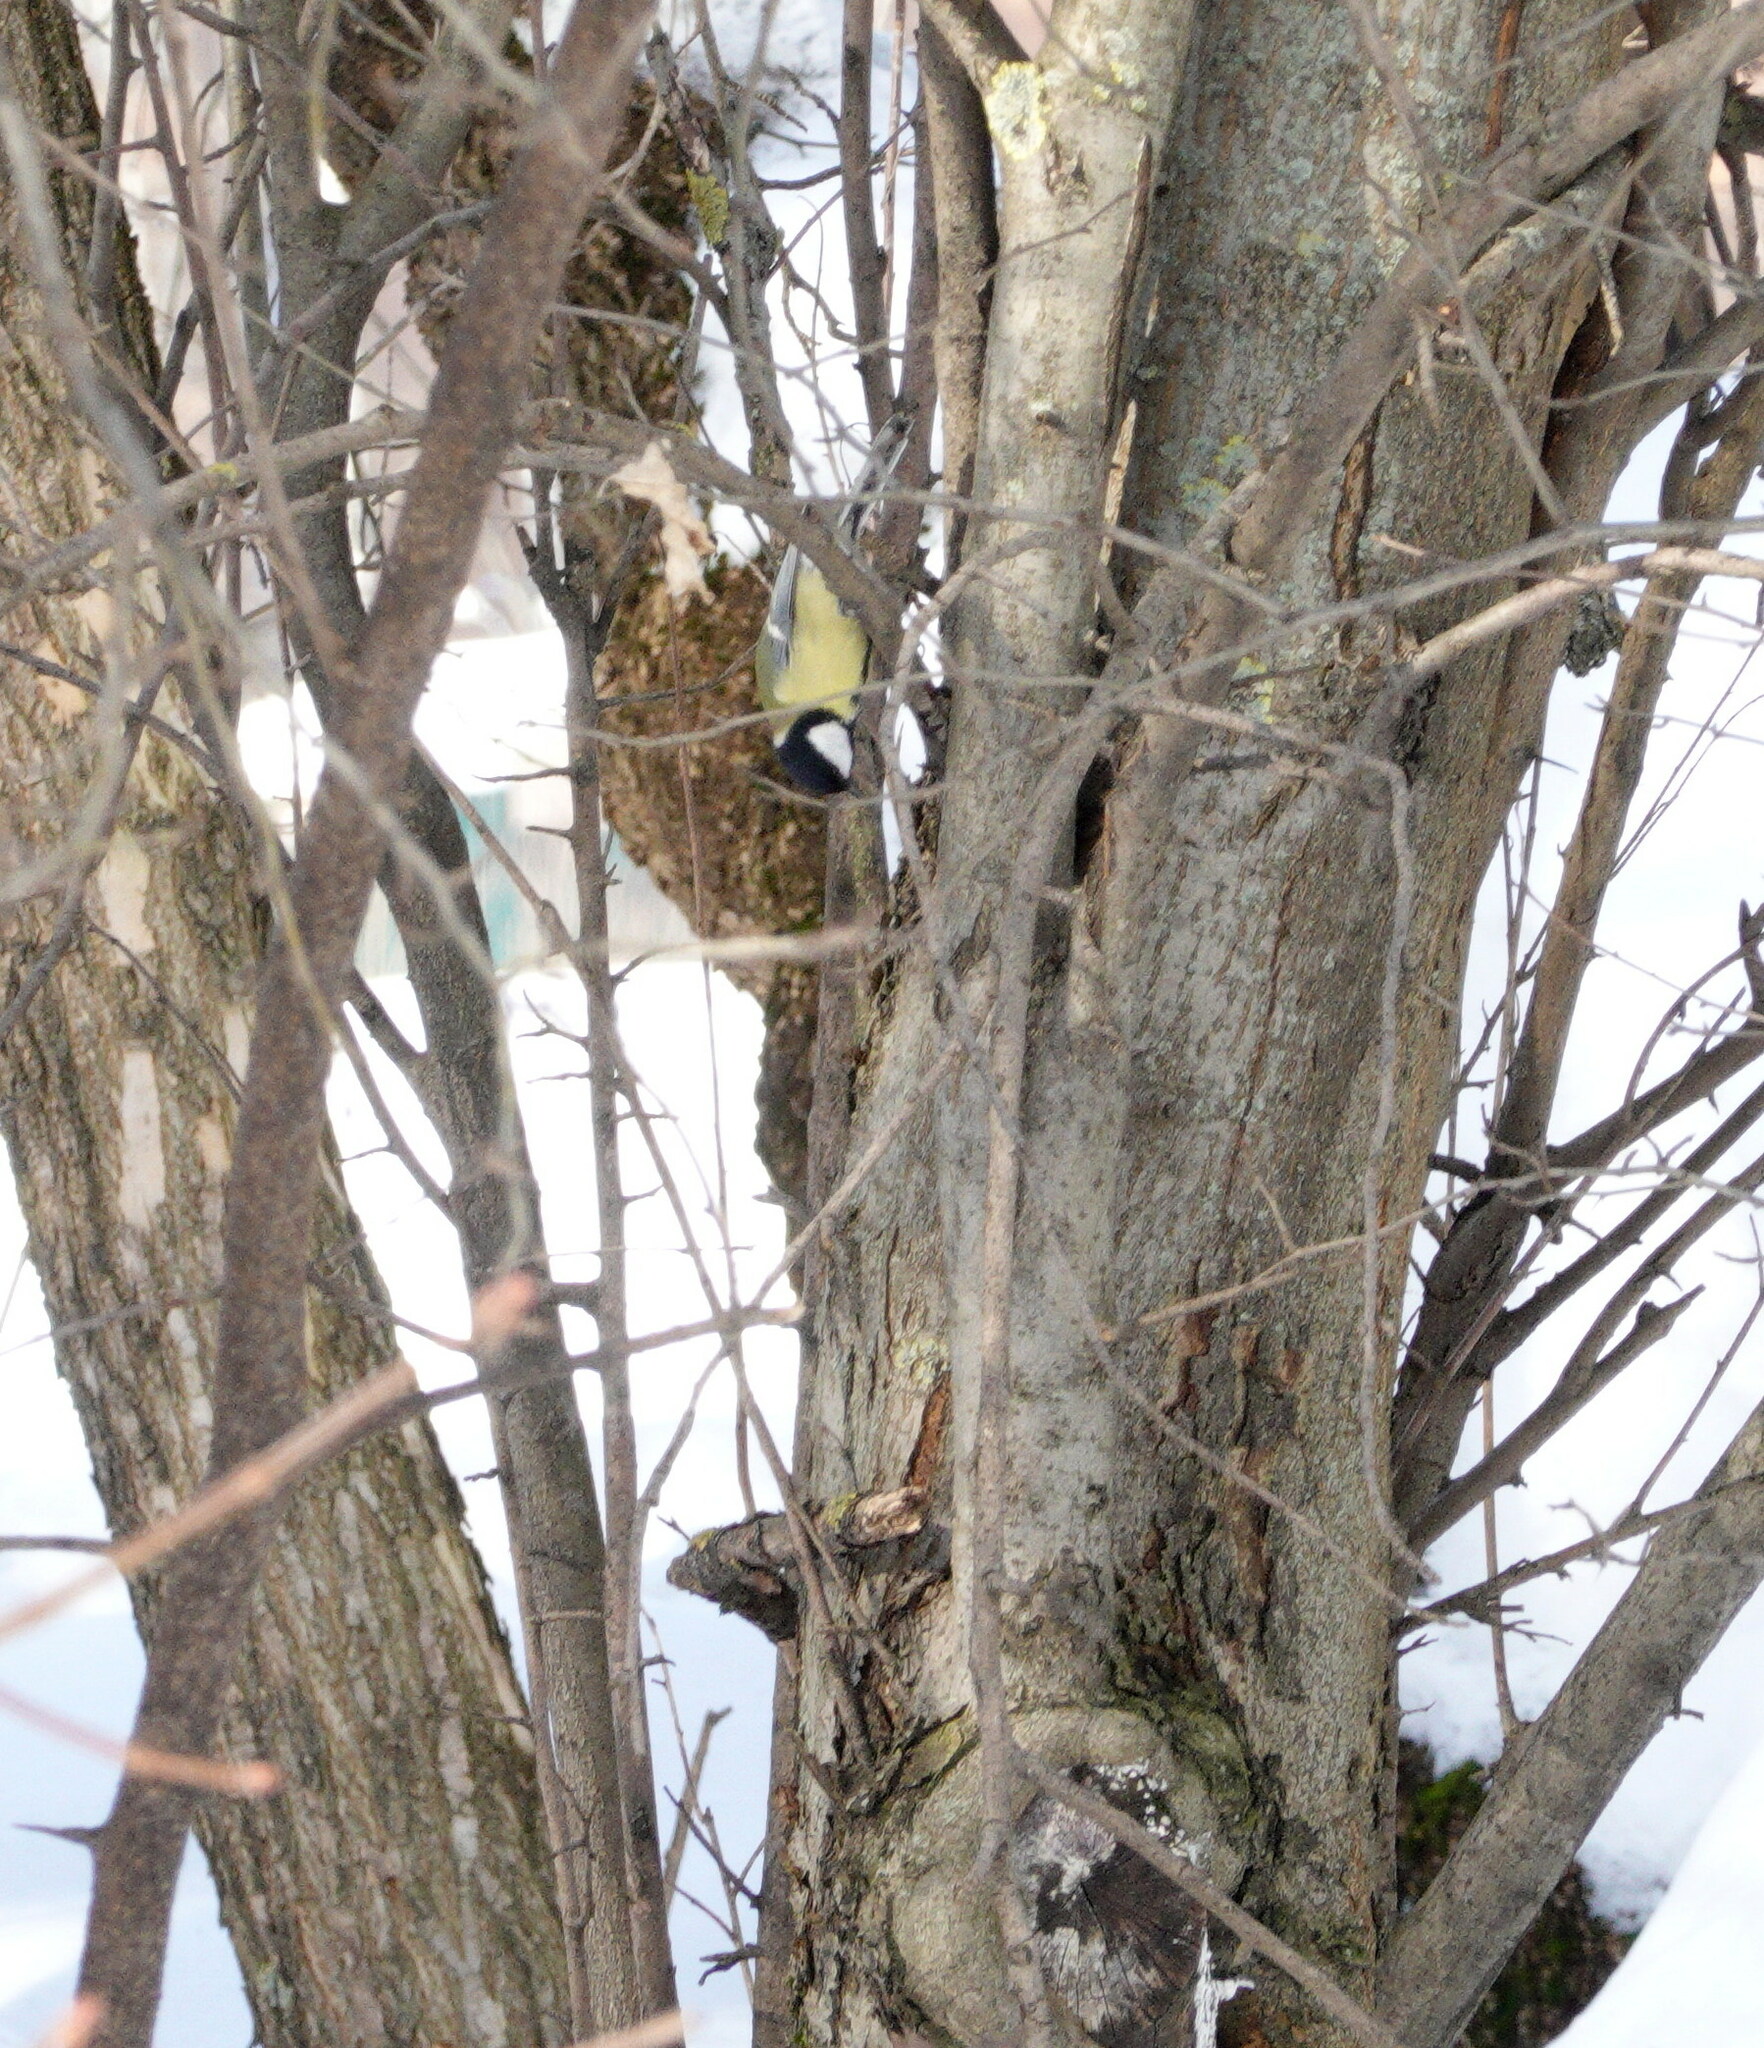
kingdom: Animalia
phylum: Chordata
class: Aves
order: Passeriformes
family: Paridae
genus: Parus
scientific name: Parus major
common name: Great tit
